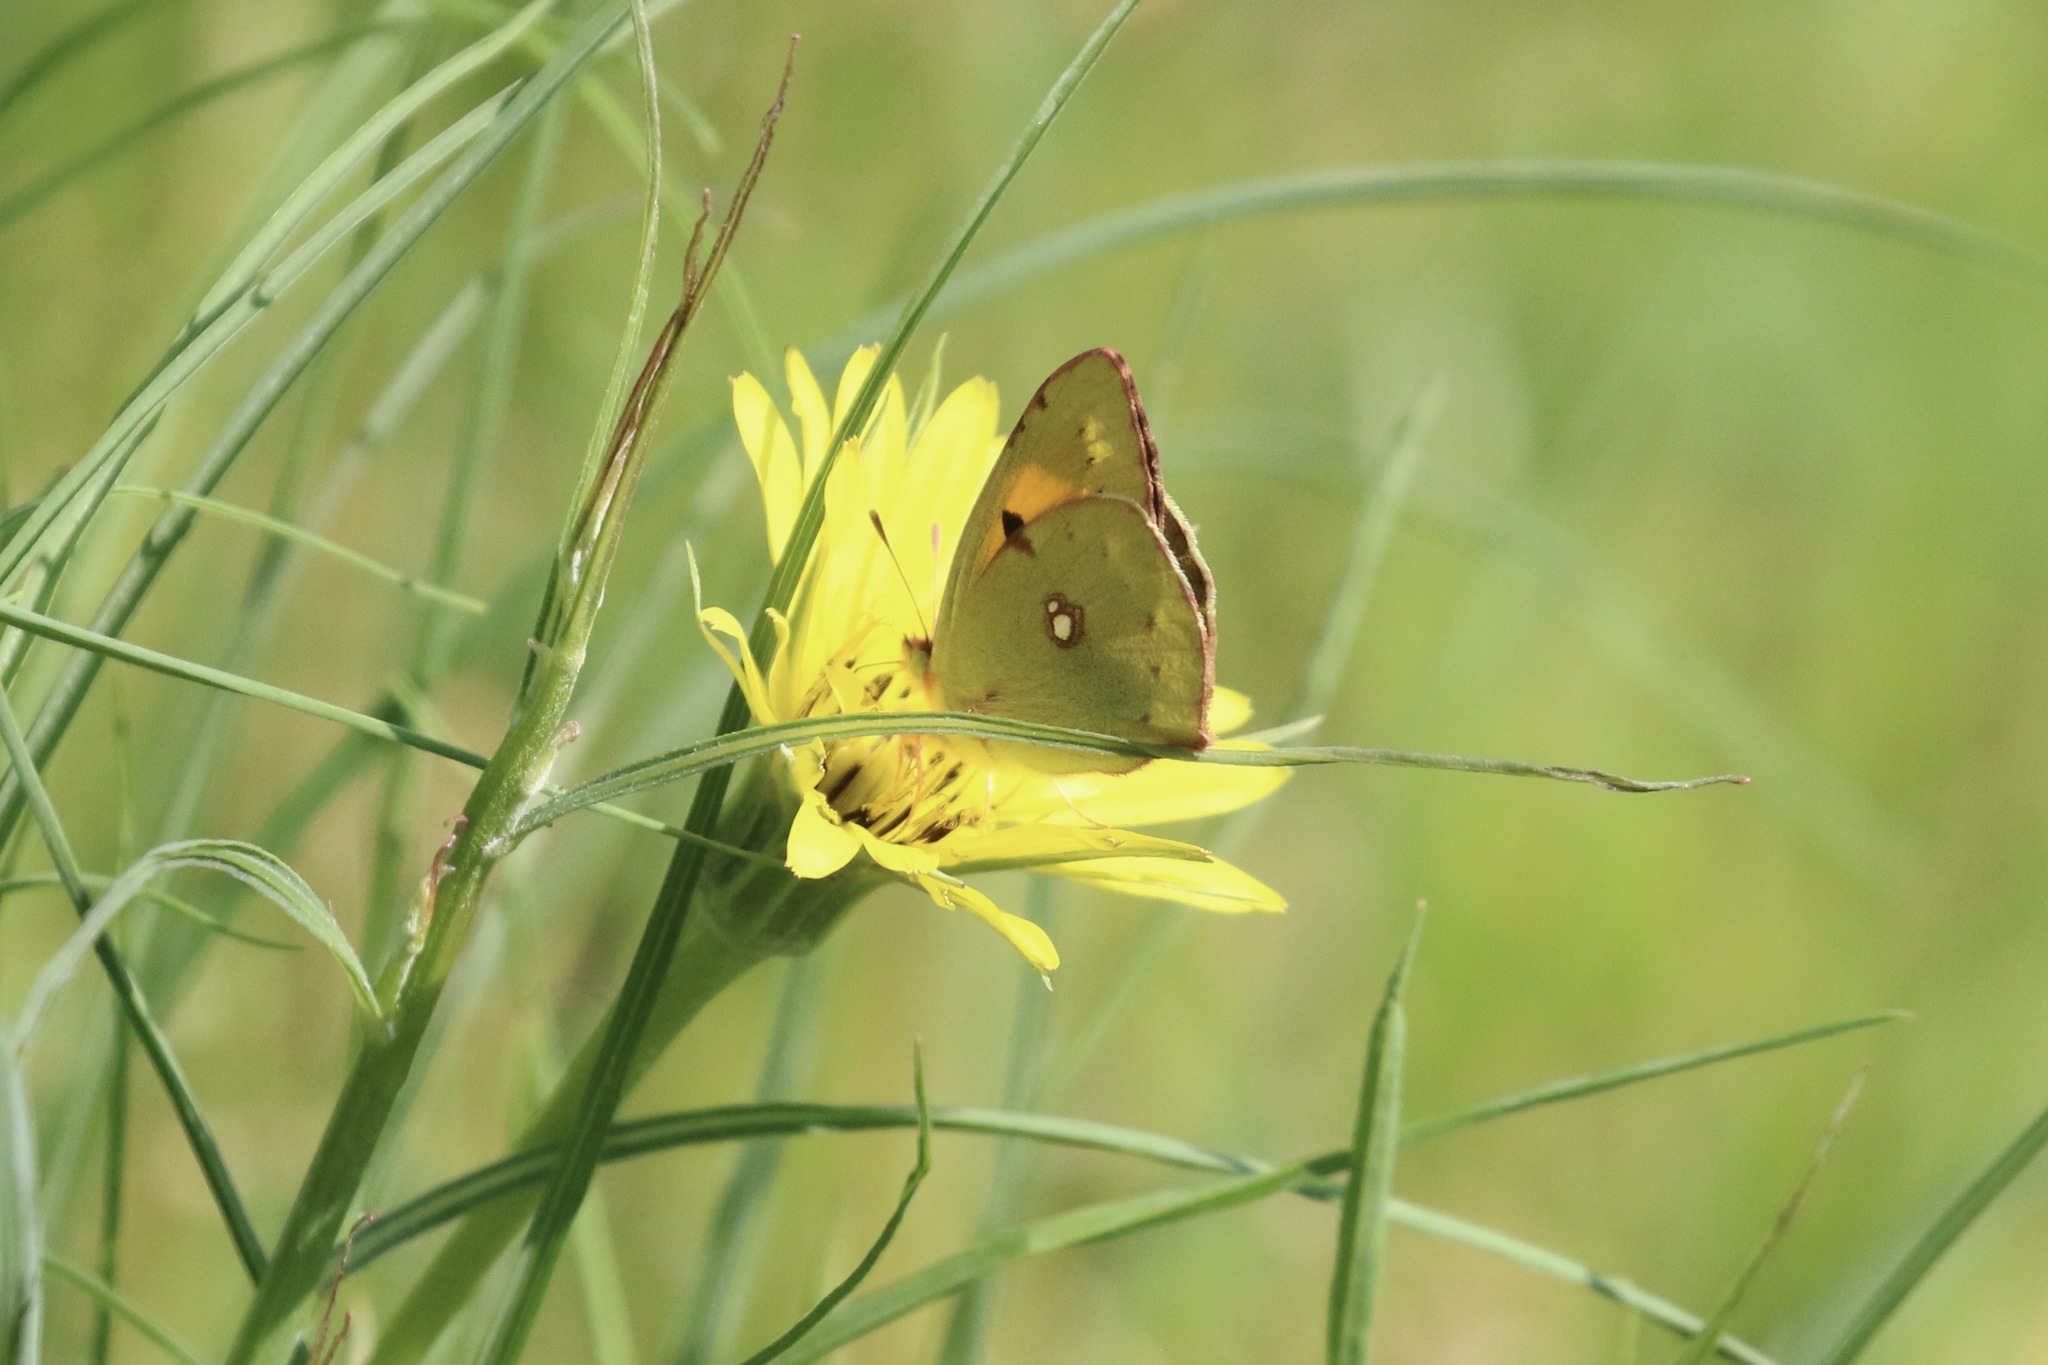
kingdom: Animalia
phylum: Arthropoda
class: Insecta
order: Lepidoptera
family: Pieridae
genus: Colias
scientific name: Colias croceus
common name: Clouded yellow
